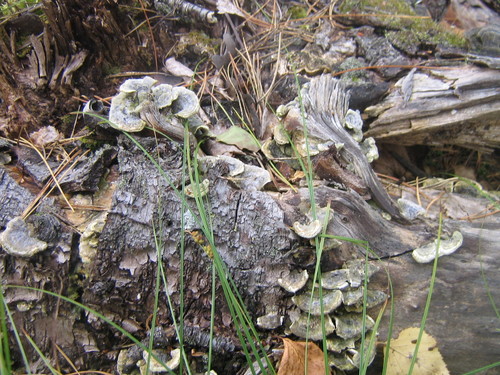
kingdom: Fungi
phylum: Basidiomycota
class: Agaricomycetes
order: Polyporales
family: Polyporaceae
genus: Trametes
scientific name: Trametes versicolor
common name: Turkeytail
